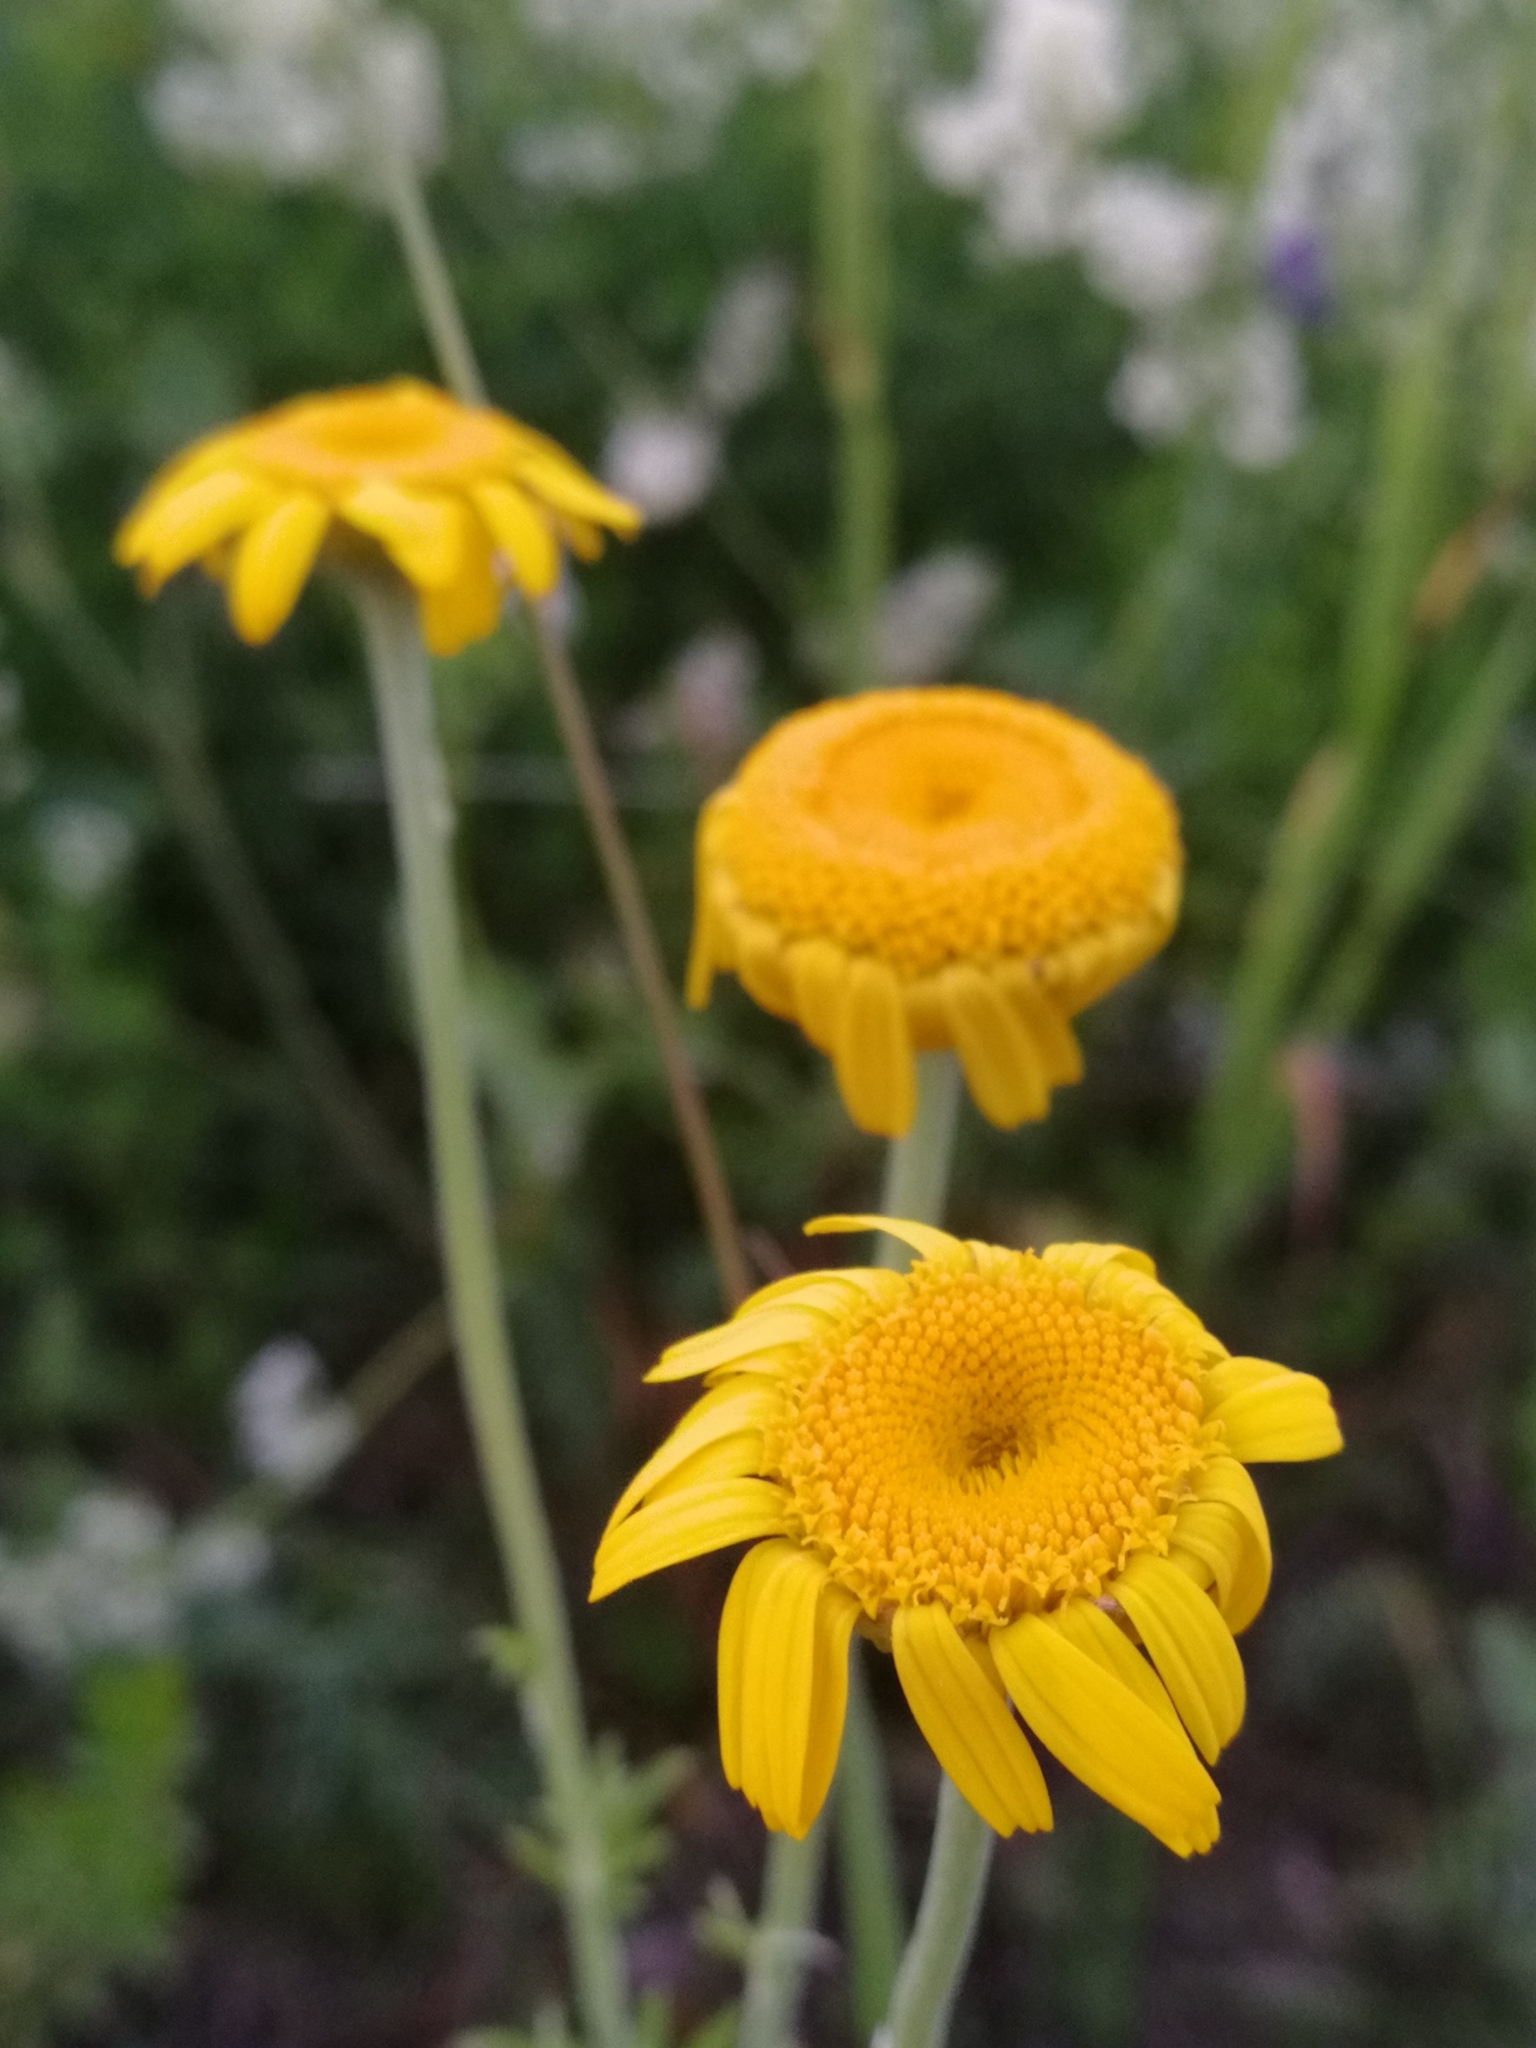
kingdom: Plantae
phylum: Tracheophyta
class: Magnoliopsida
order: Asterales
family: Asteraceae
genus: Cota
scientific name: Cota tinctoria
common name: Golden chamomile
